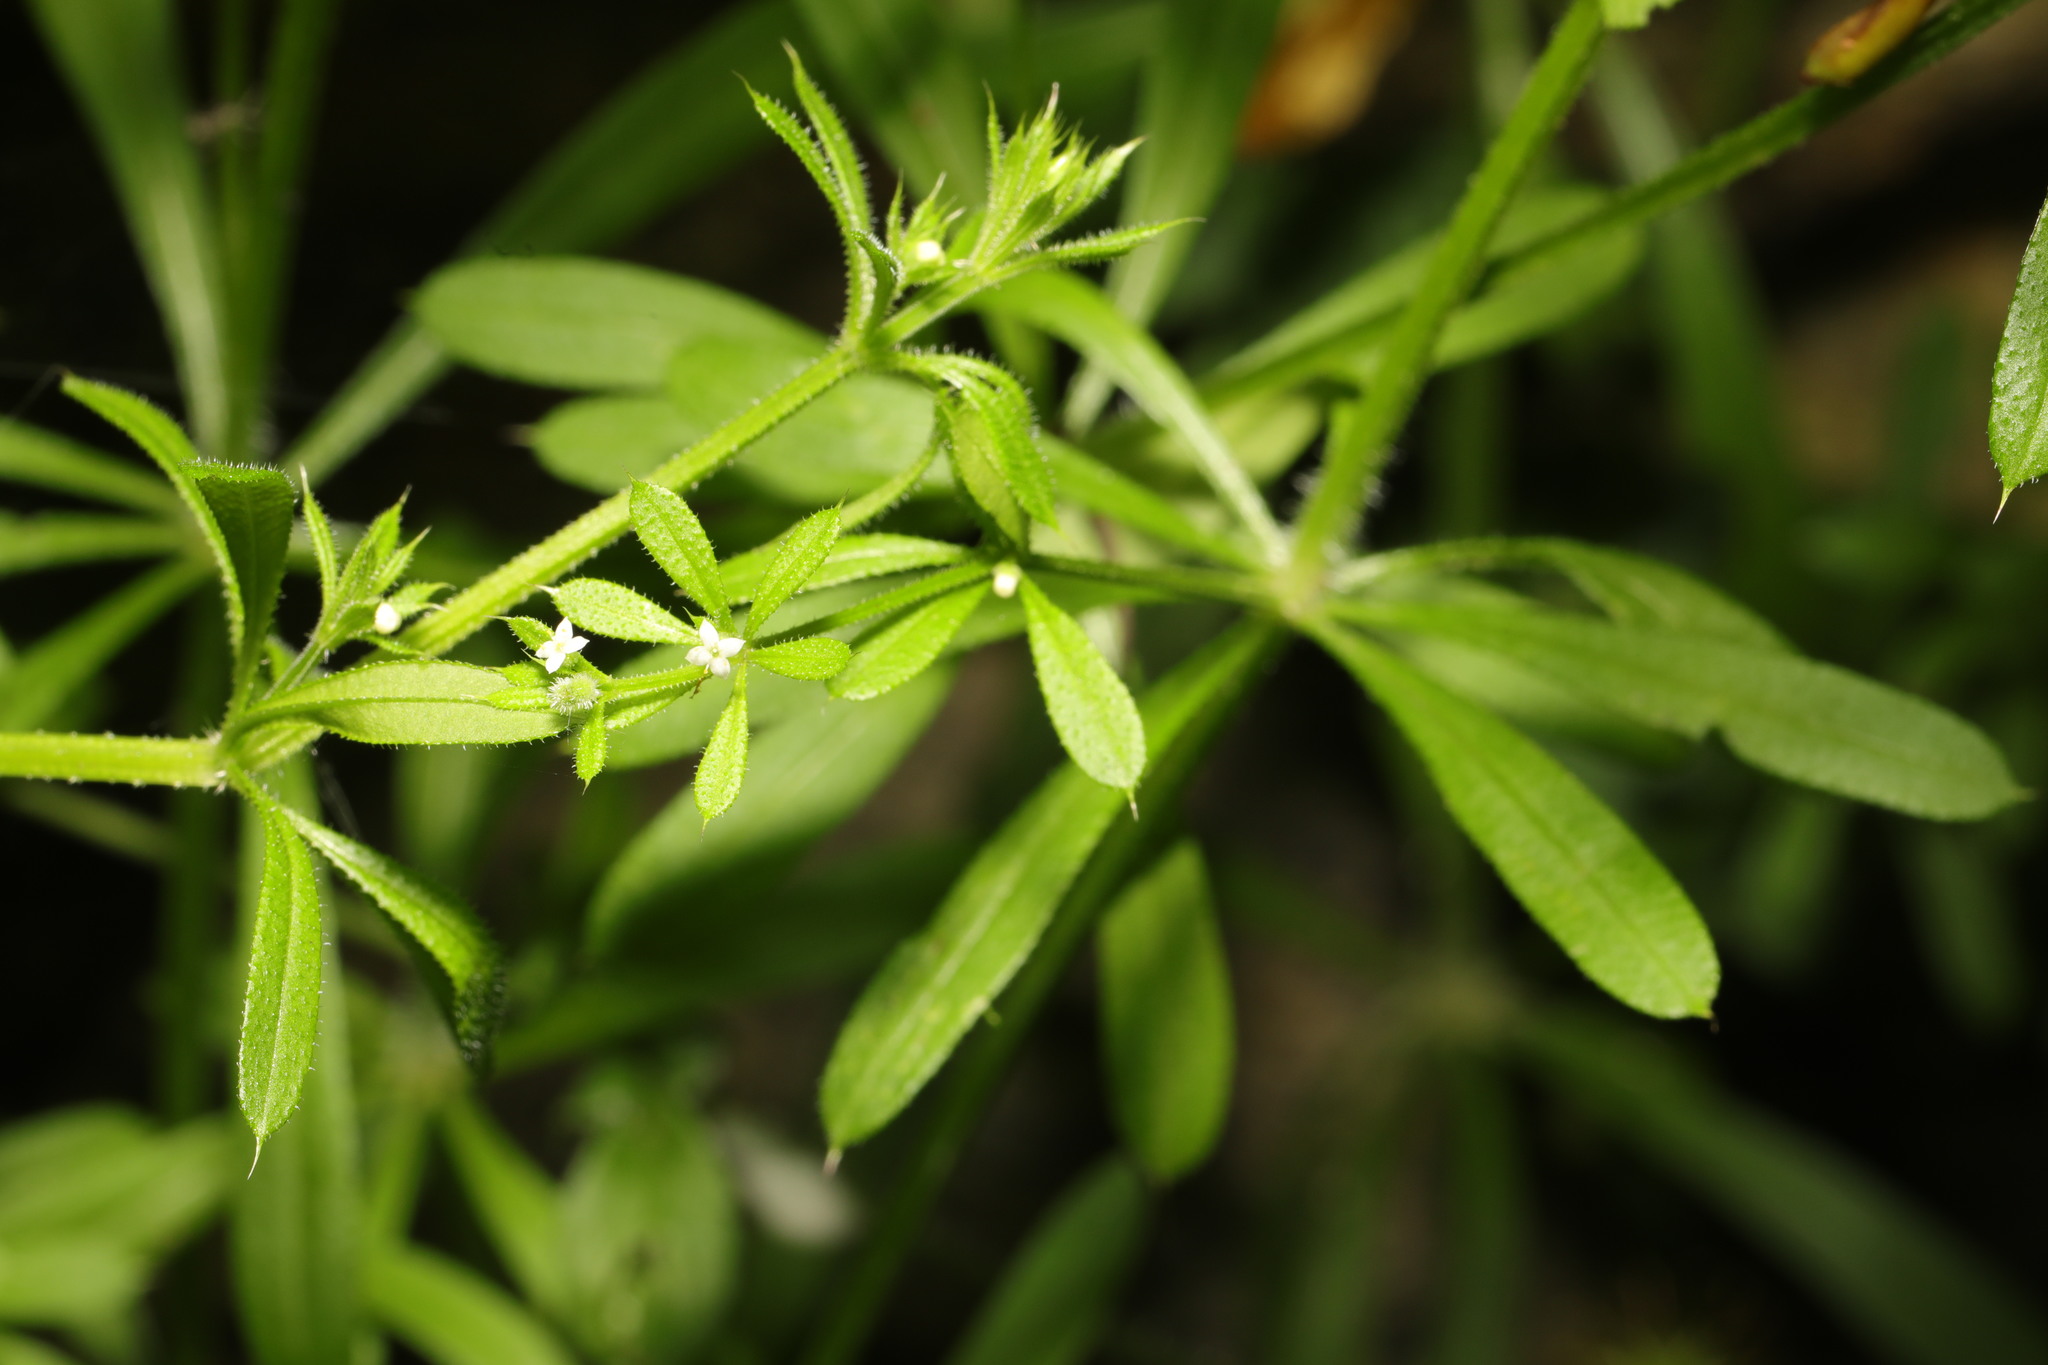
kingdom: Plantae
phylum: Tracheophyta
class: Magnoliopsida
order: Gentianales
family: Rubiaceae
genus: Galium
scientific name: Galium aparine
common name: Cleavers
